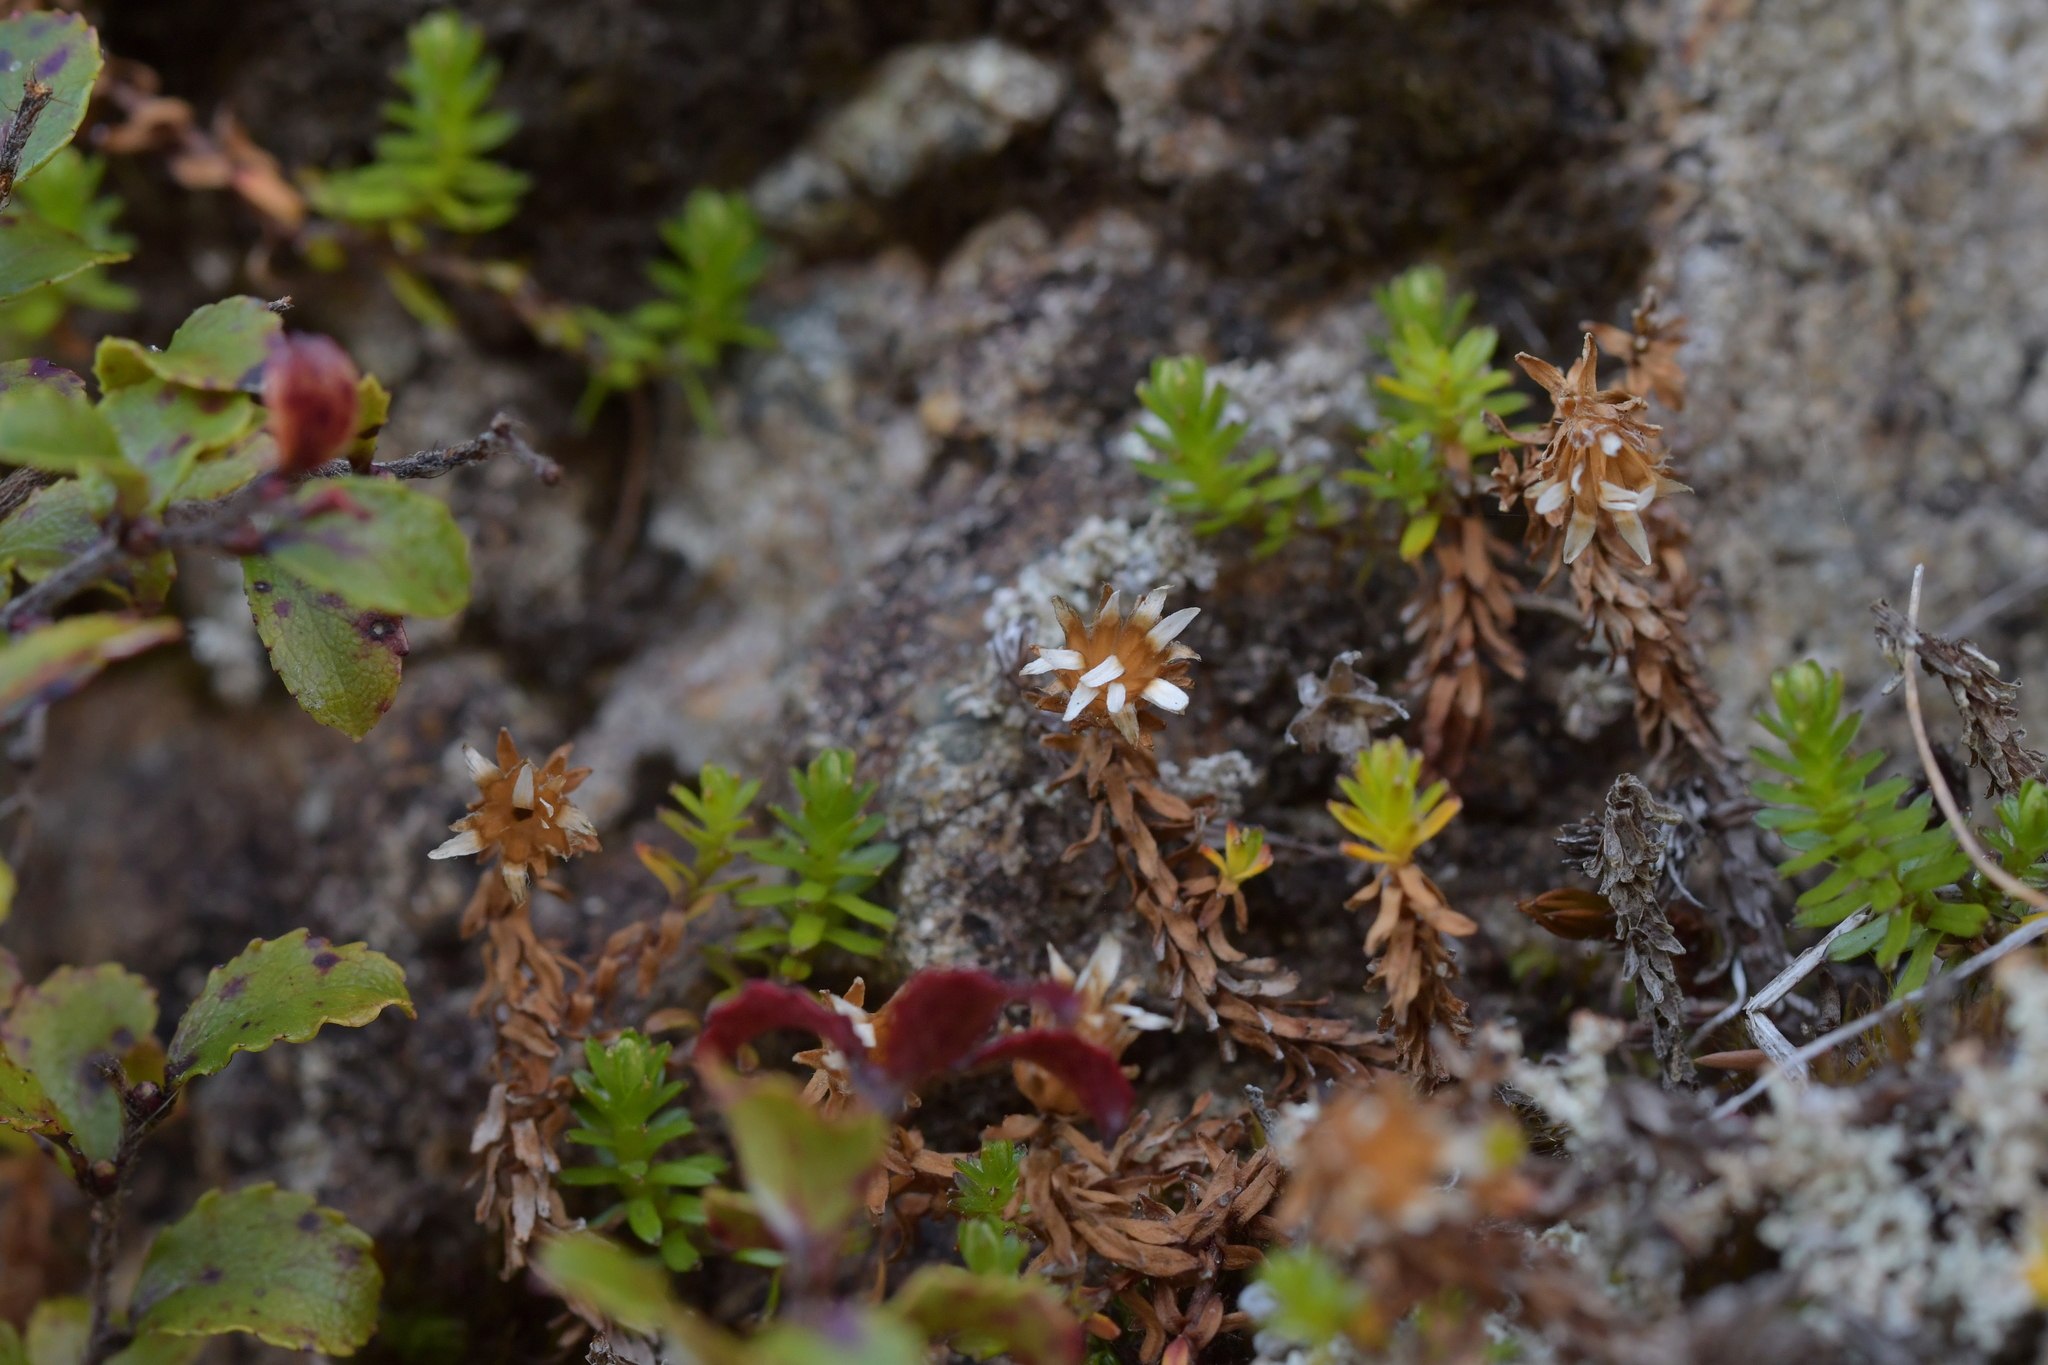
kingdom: Plantae
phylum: Tracheophyta
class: Magnoliopsida
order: Asterales
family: Asteraceae
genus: Raoulia
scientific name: Raoulia glabra
